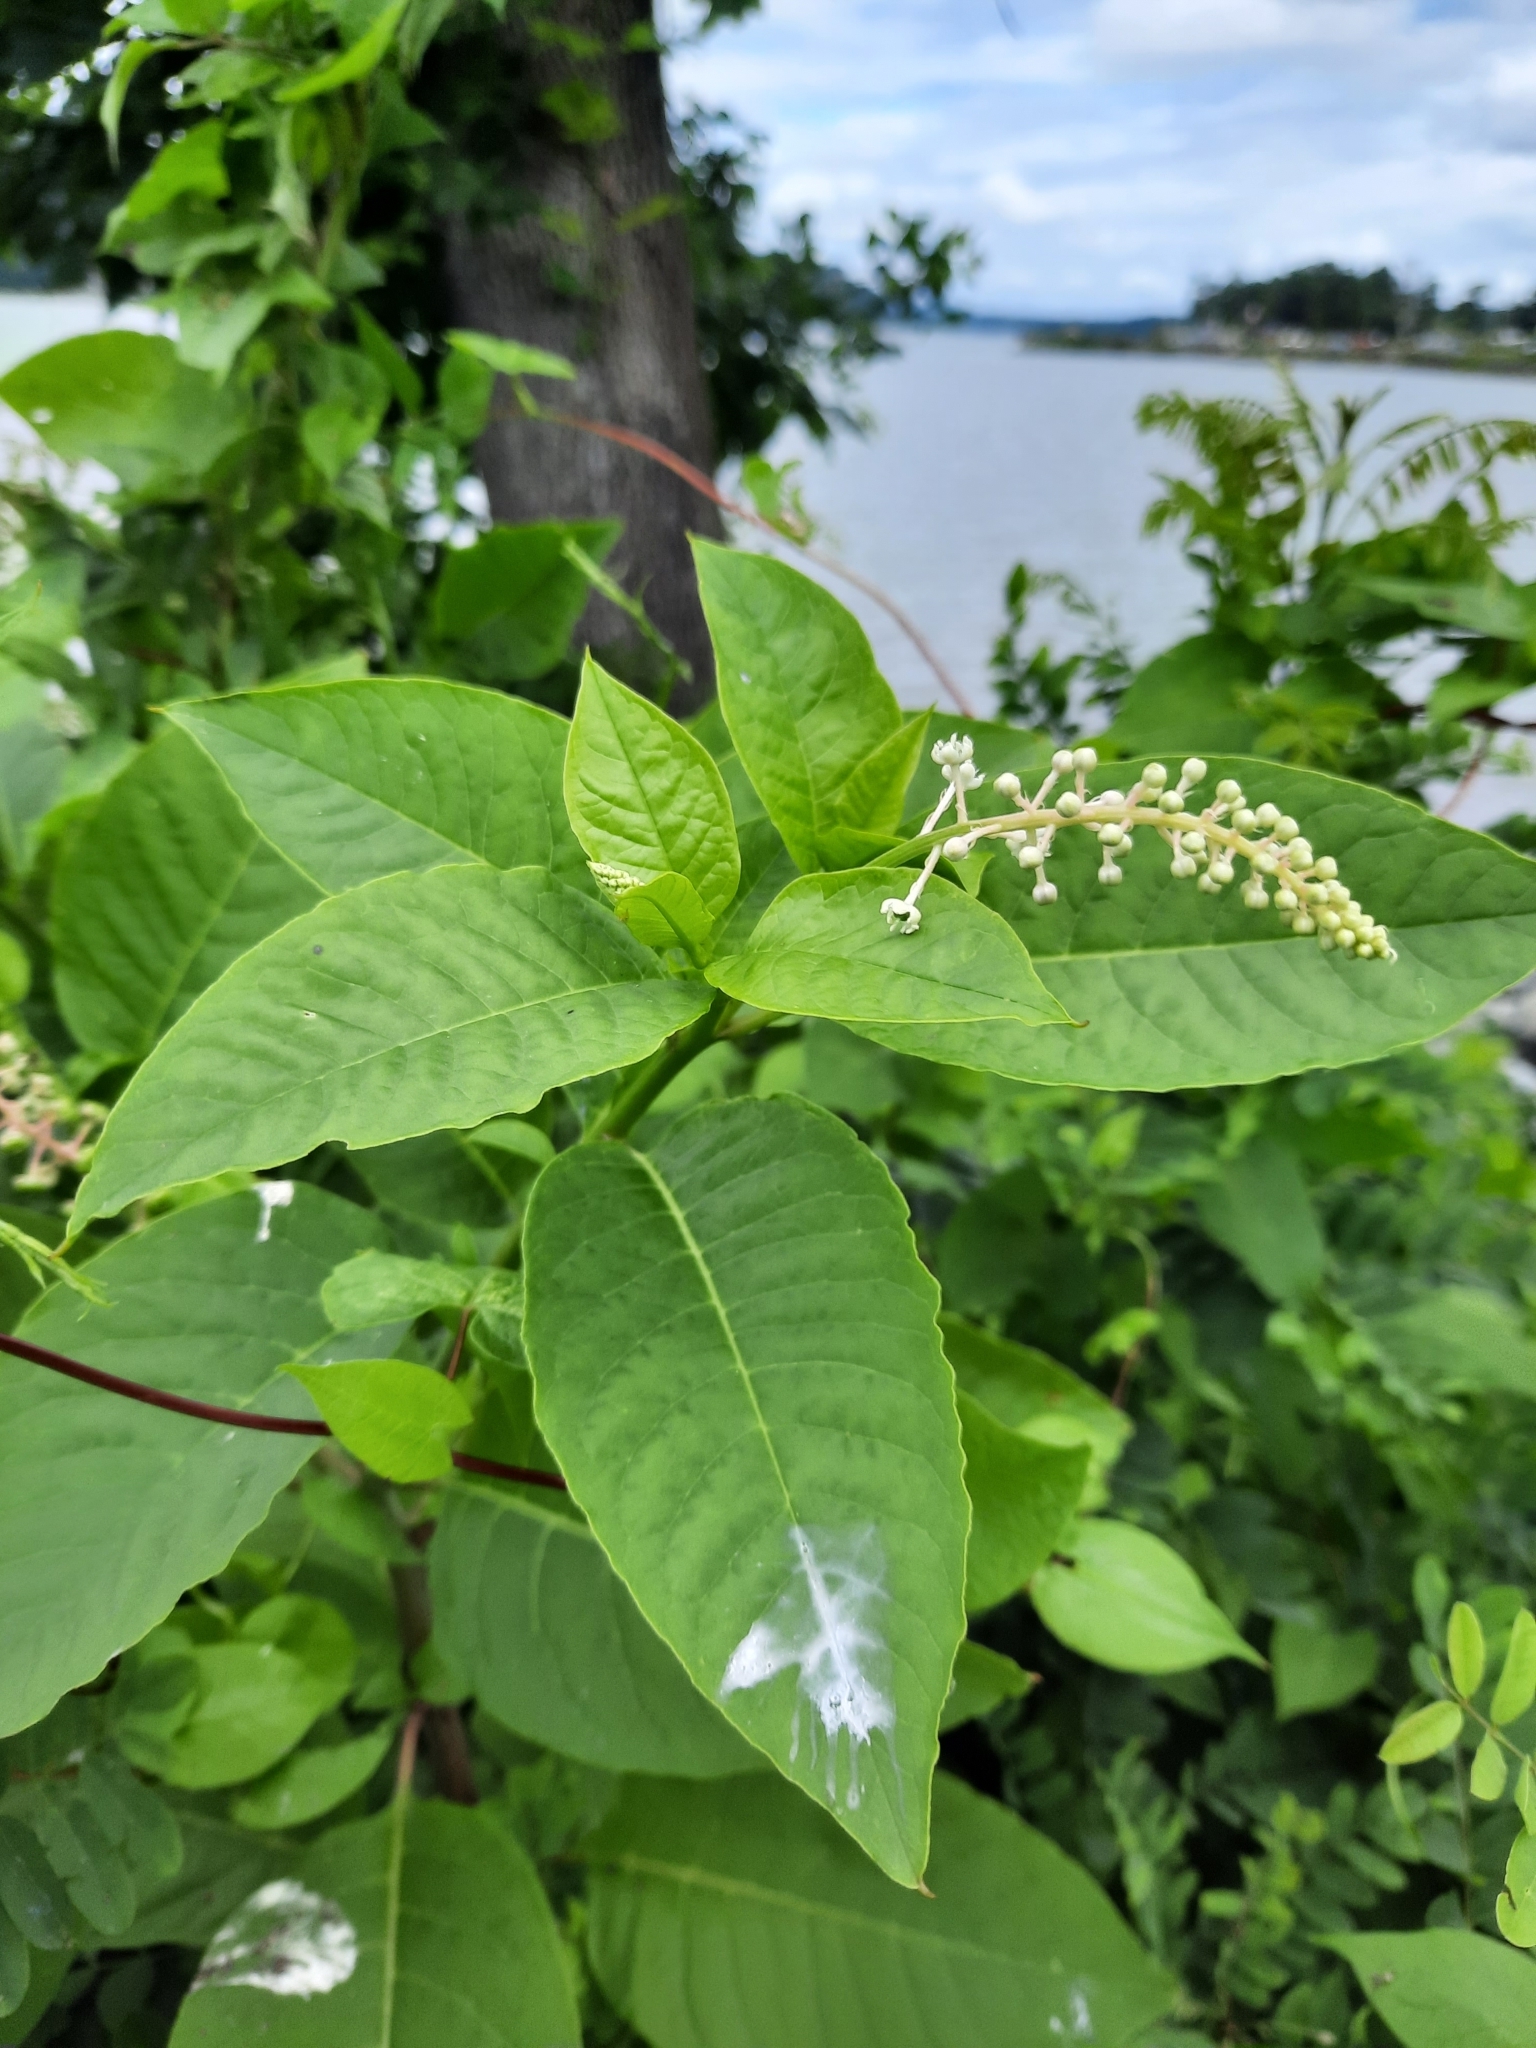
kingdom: Plantae
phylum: Tracheophyta
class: Magnoliopsida
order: Caryophyllales
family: Phytolaccaceae
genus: Phytolacca
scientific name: Phytolacca americana
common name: American pokeweed
